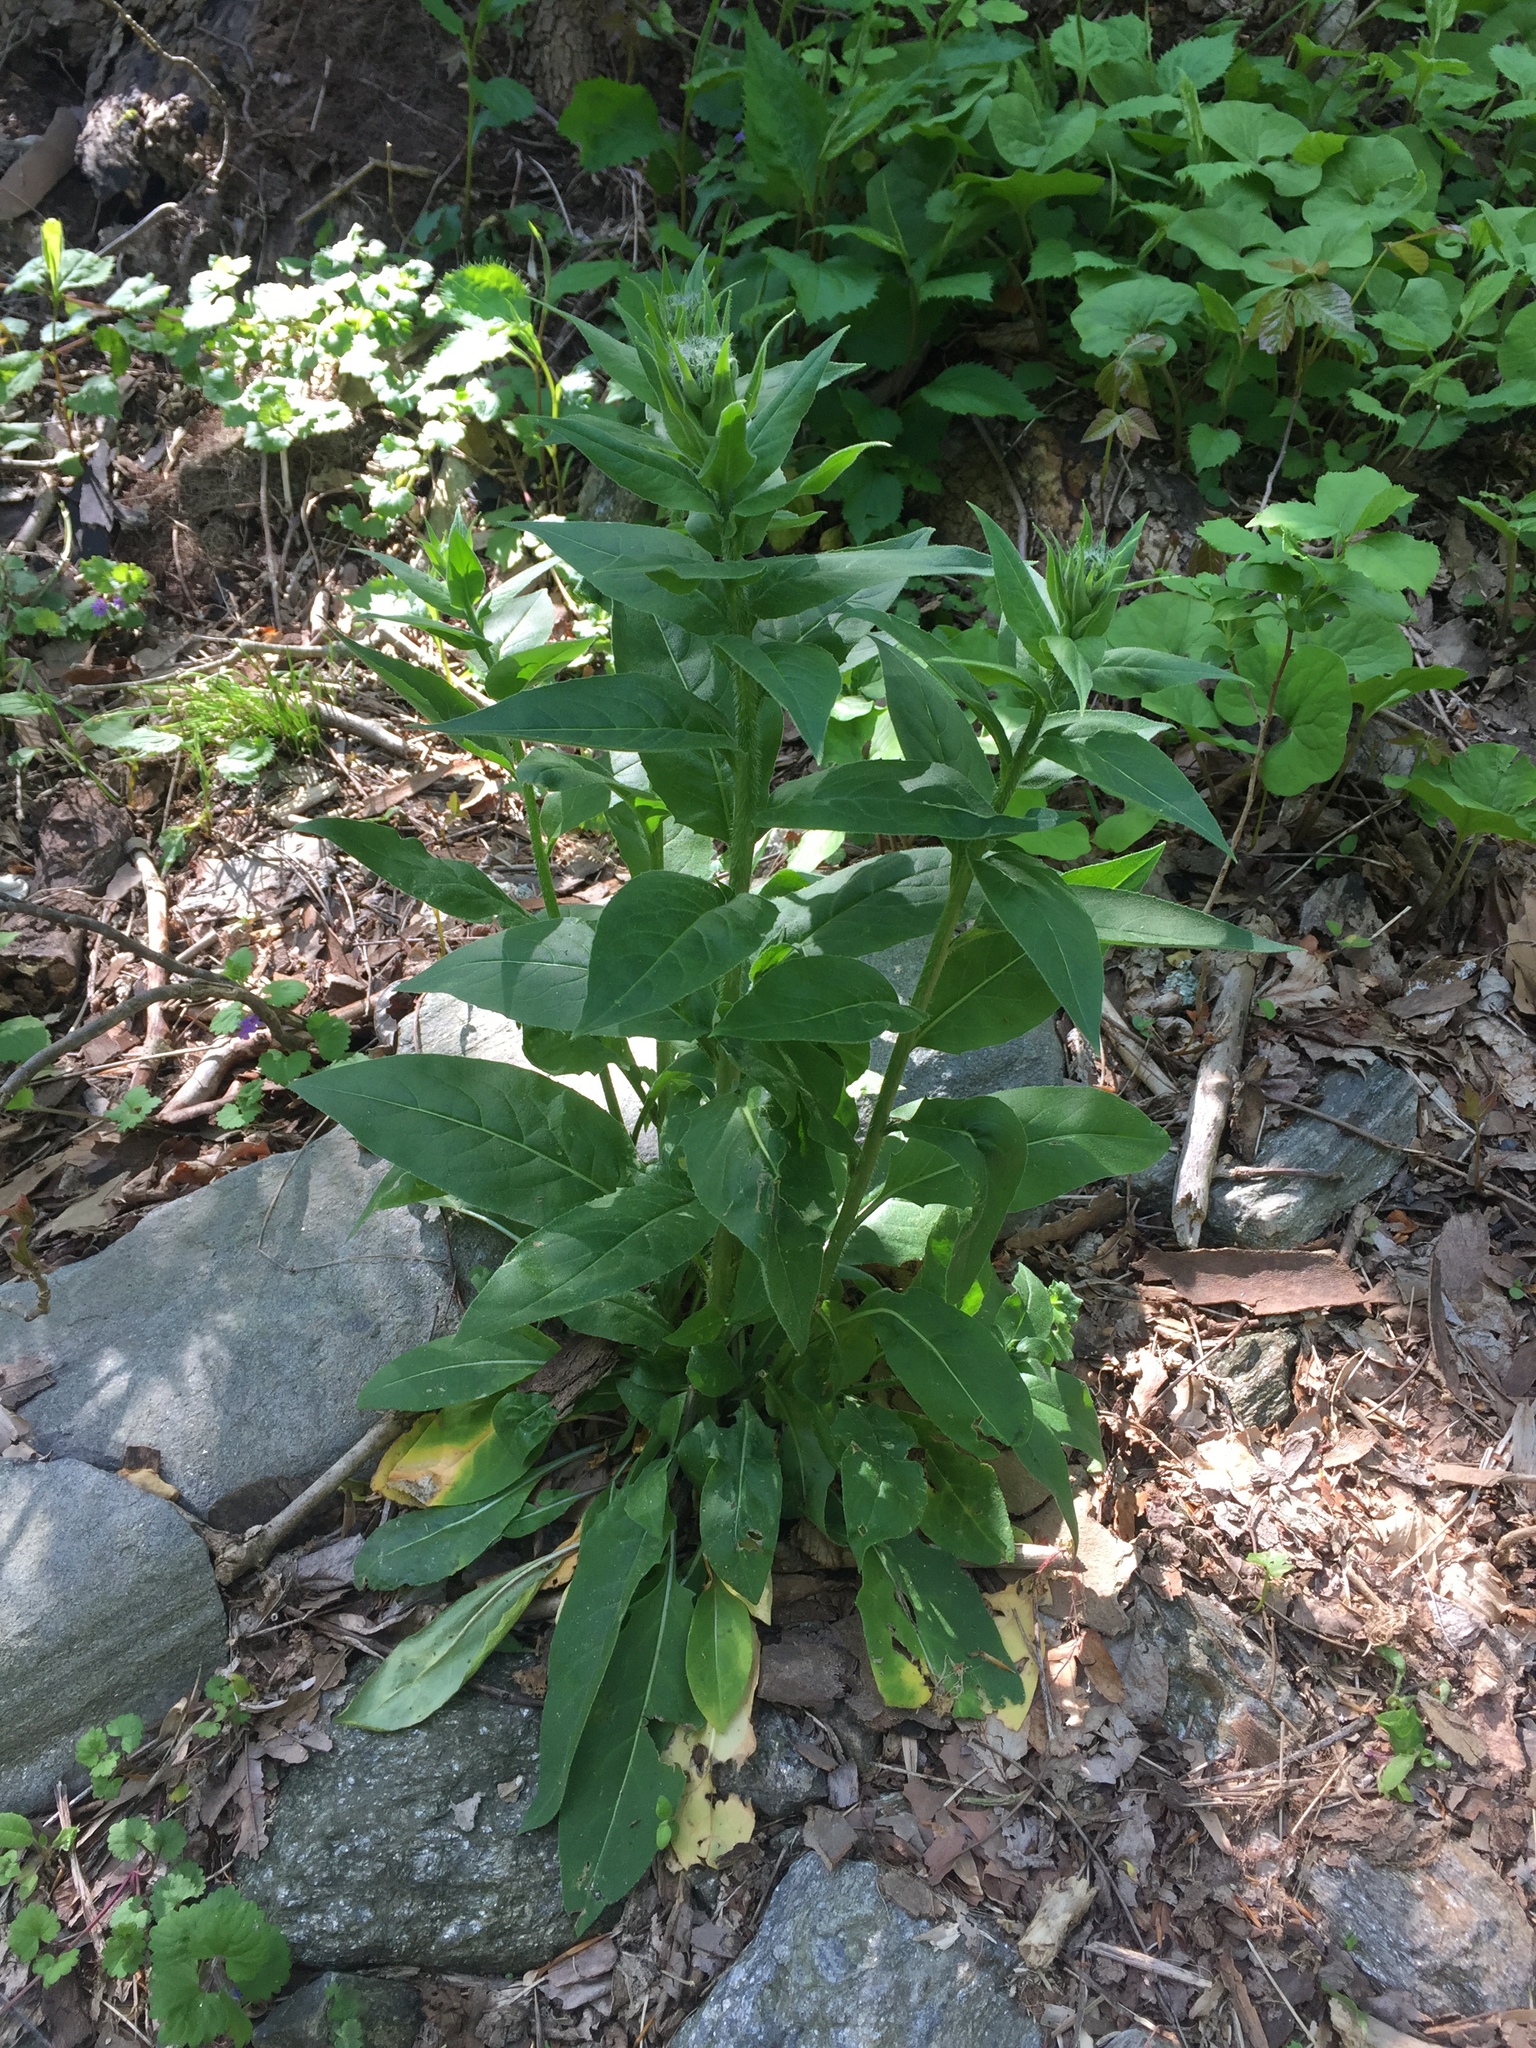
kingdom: Plantae
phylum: Tracheophyta
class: Magnoliopsida
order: Brassicales
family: Brassicaceae
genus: Hesperis
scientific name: Hesperis matronalis
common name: Dame's-violet
